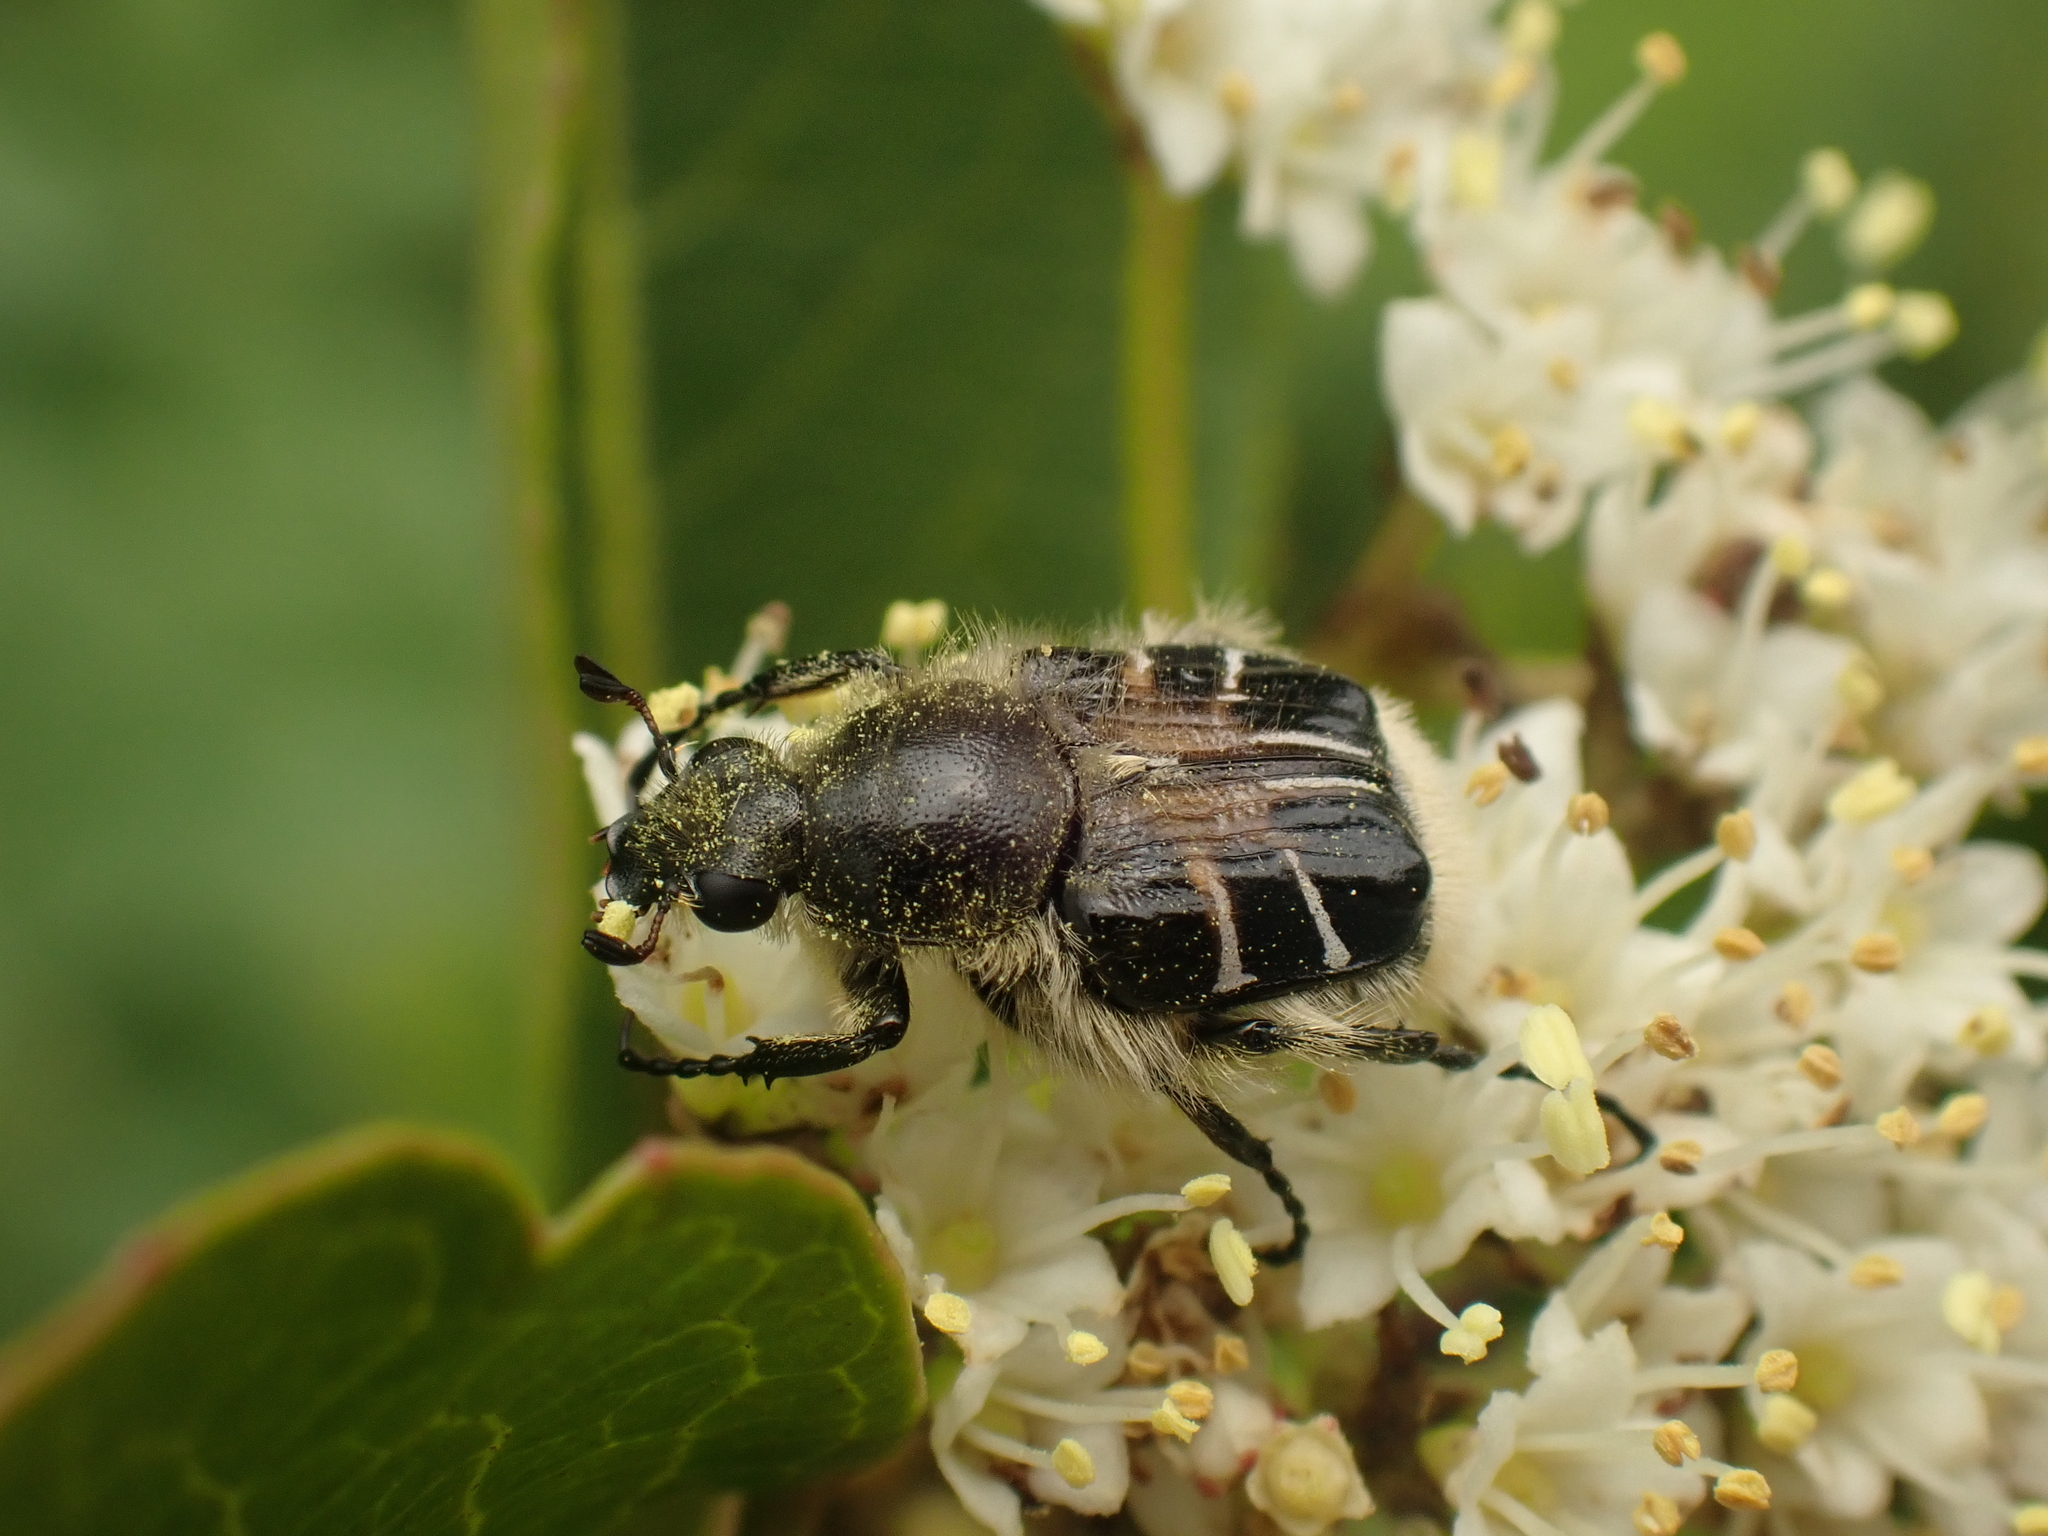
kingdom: Animalia
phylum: Arthropoda
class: Insecta
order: Coleoptera
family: Scarabaeidae
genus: Trichiotinus
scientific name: Trichiotinus assimilis
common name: Bee-mimic beetle
